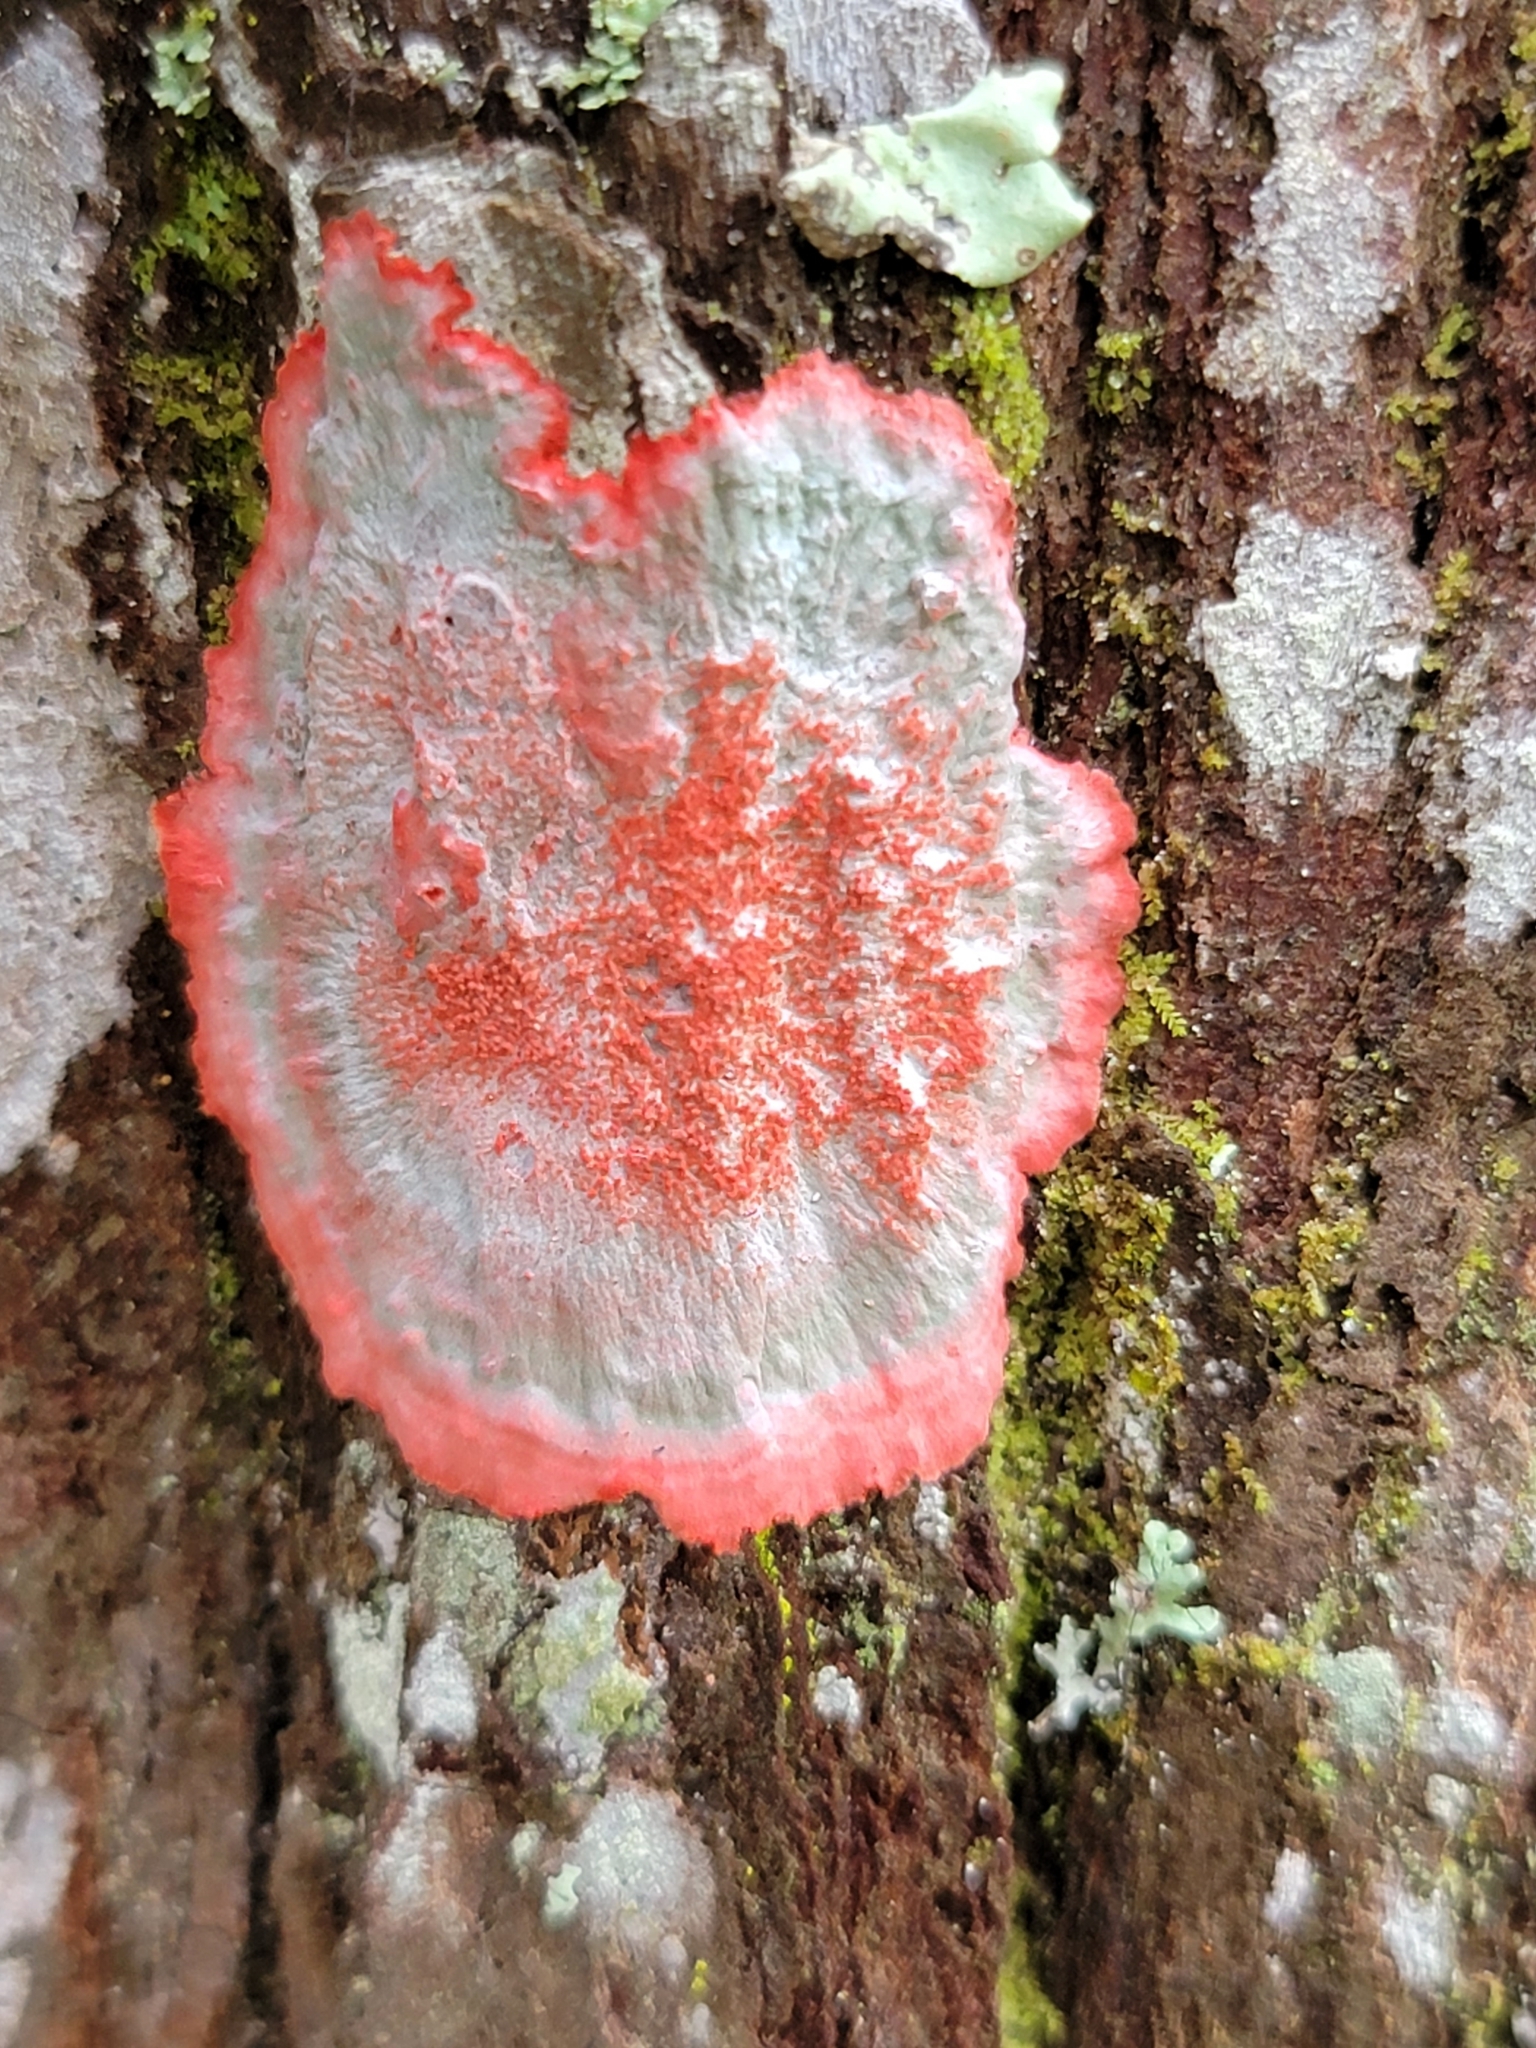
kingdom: Fungi
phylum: Ascomycota
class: Arthoniomycetes
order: Arthoniales
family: Arthoniaceae
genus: Herpothallon
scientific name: Herpothallon rubrocinctum
